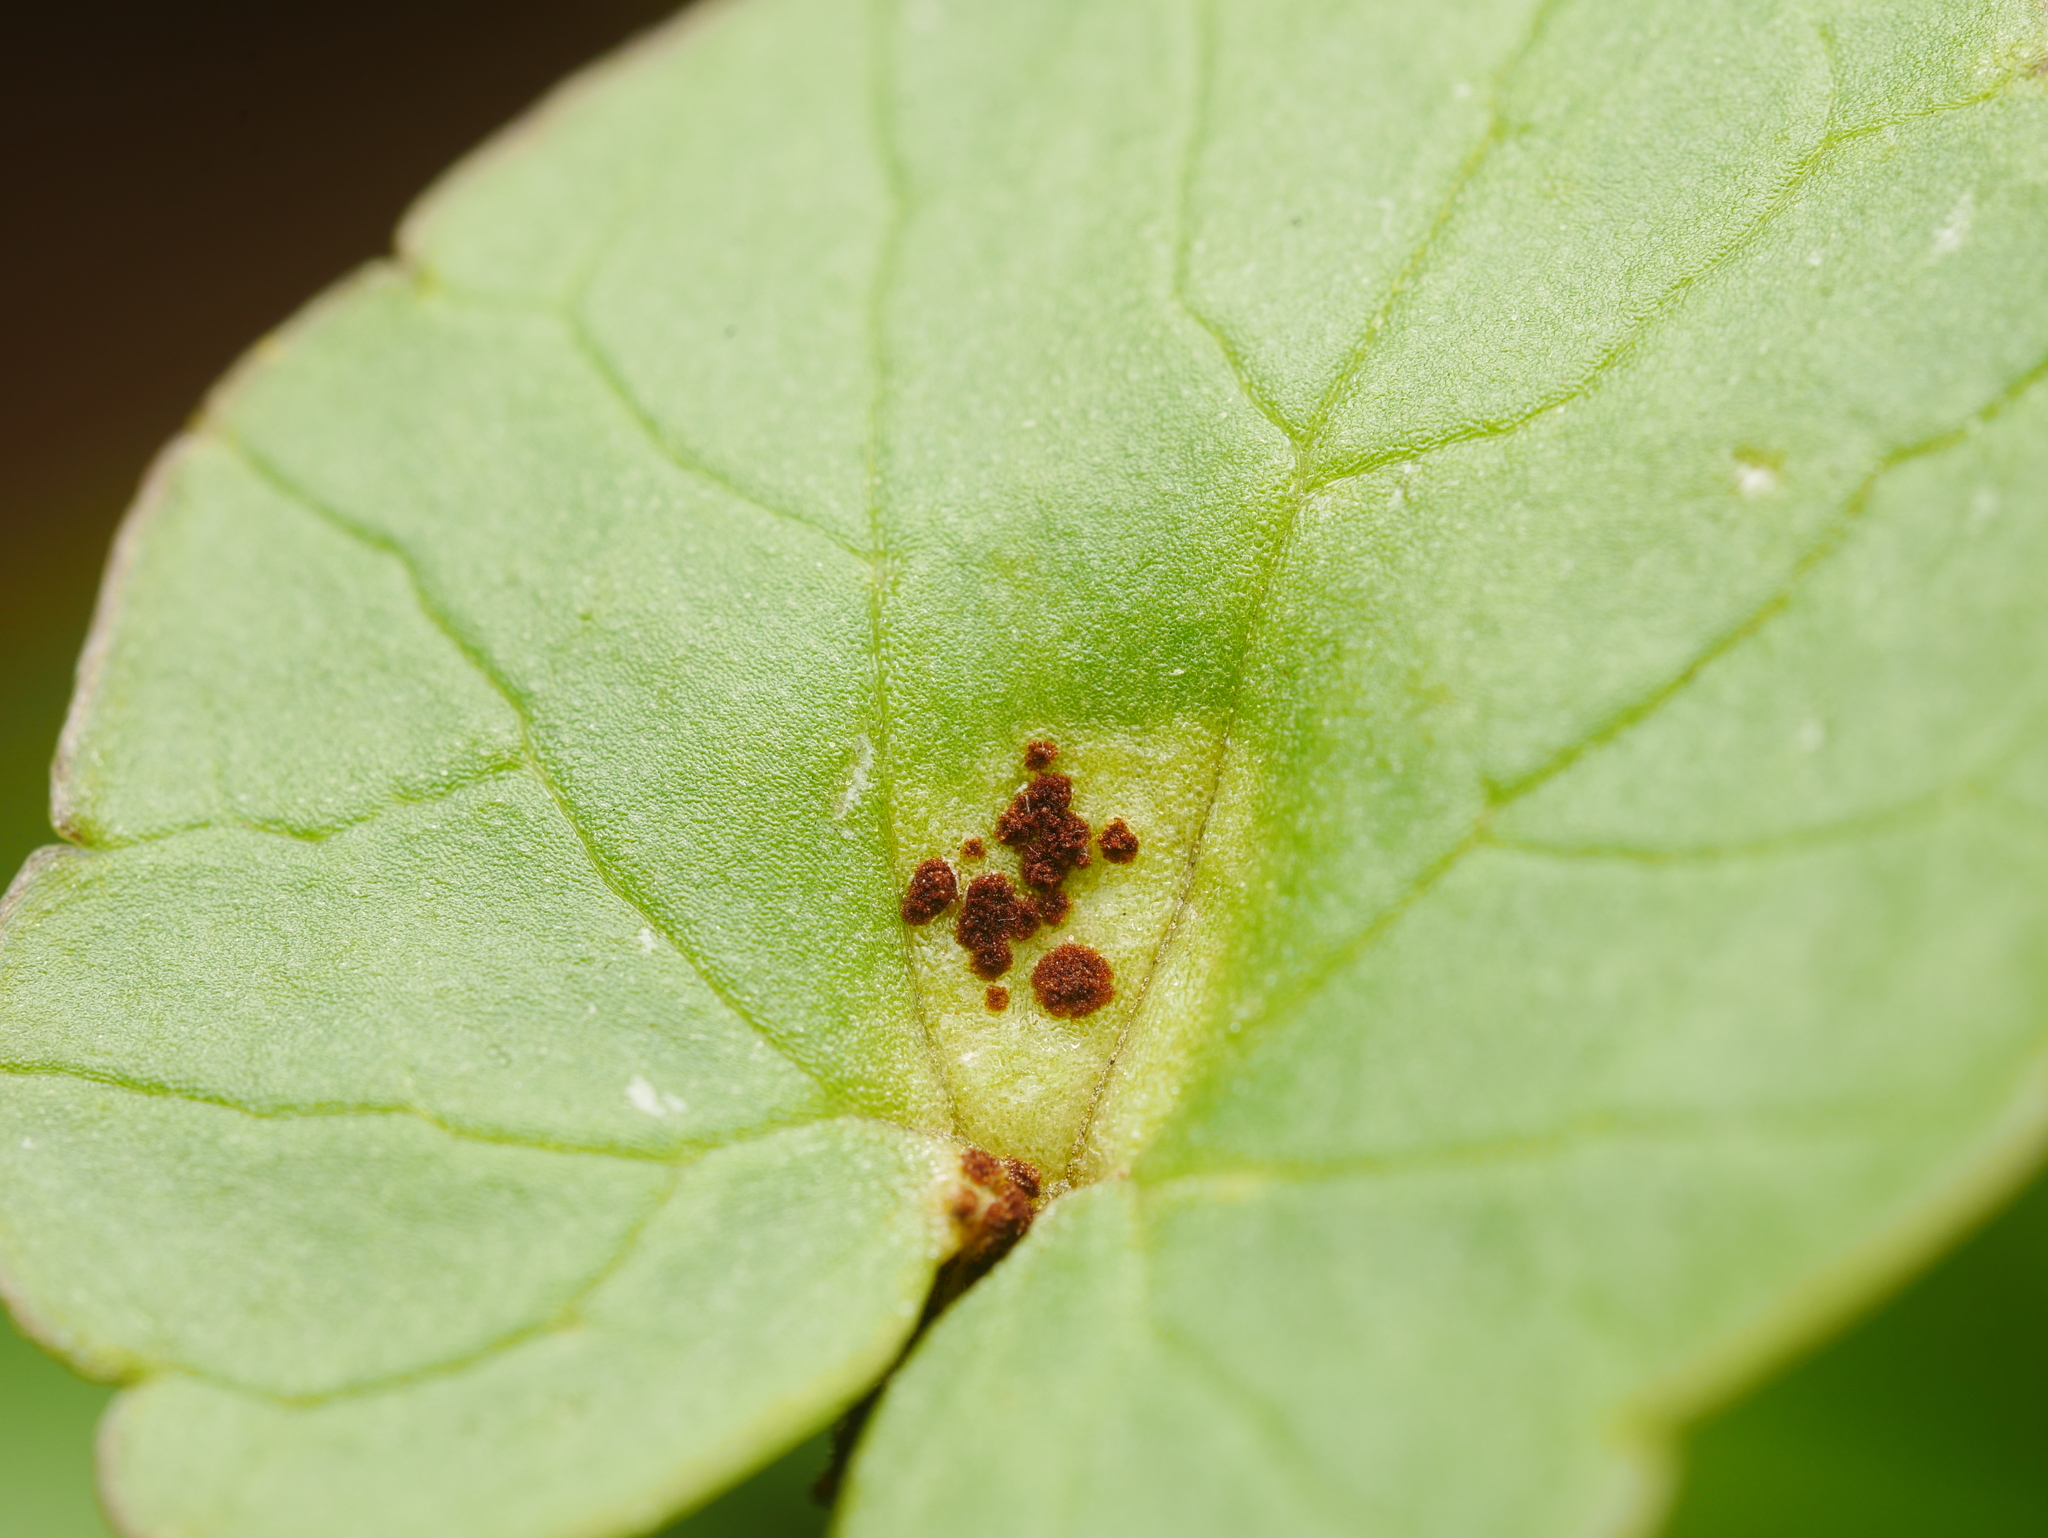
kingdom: Fungi
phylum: Basidiomycota
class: Pucciniomycetes
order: Pucciniales
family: Pucciniaceae
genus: Uromyces
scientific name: Uromyces ficariae
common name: Bitter chocolate rust
